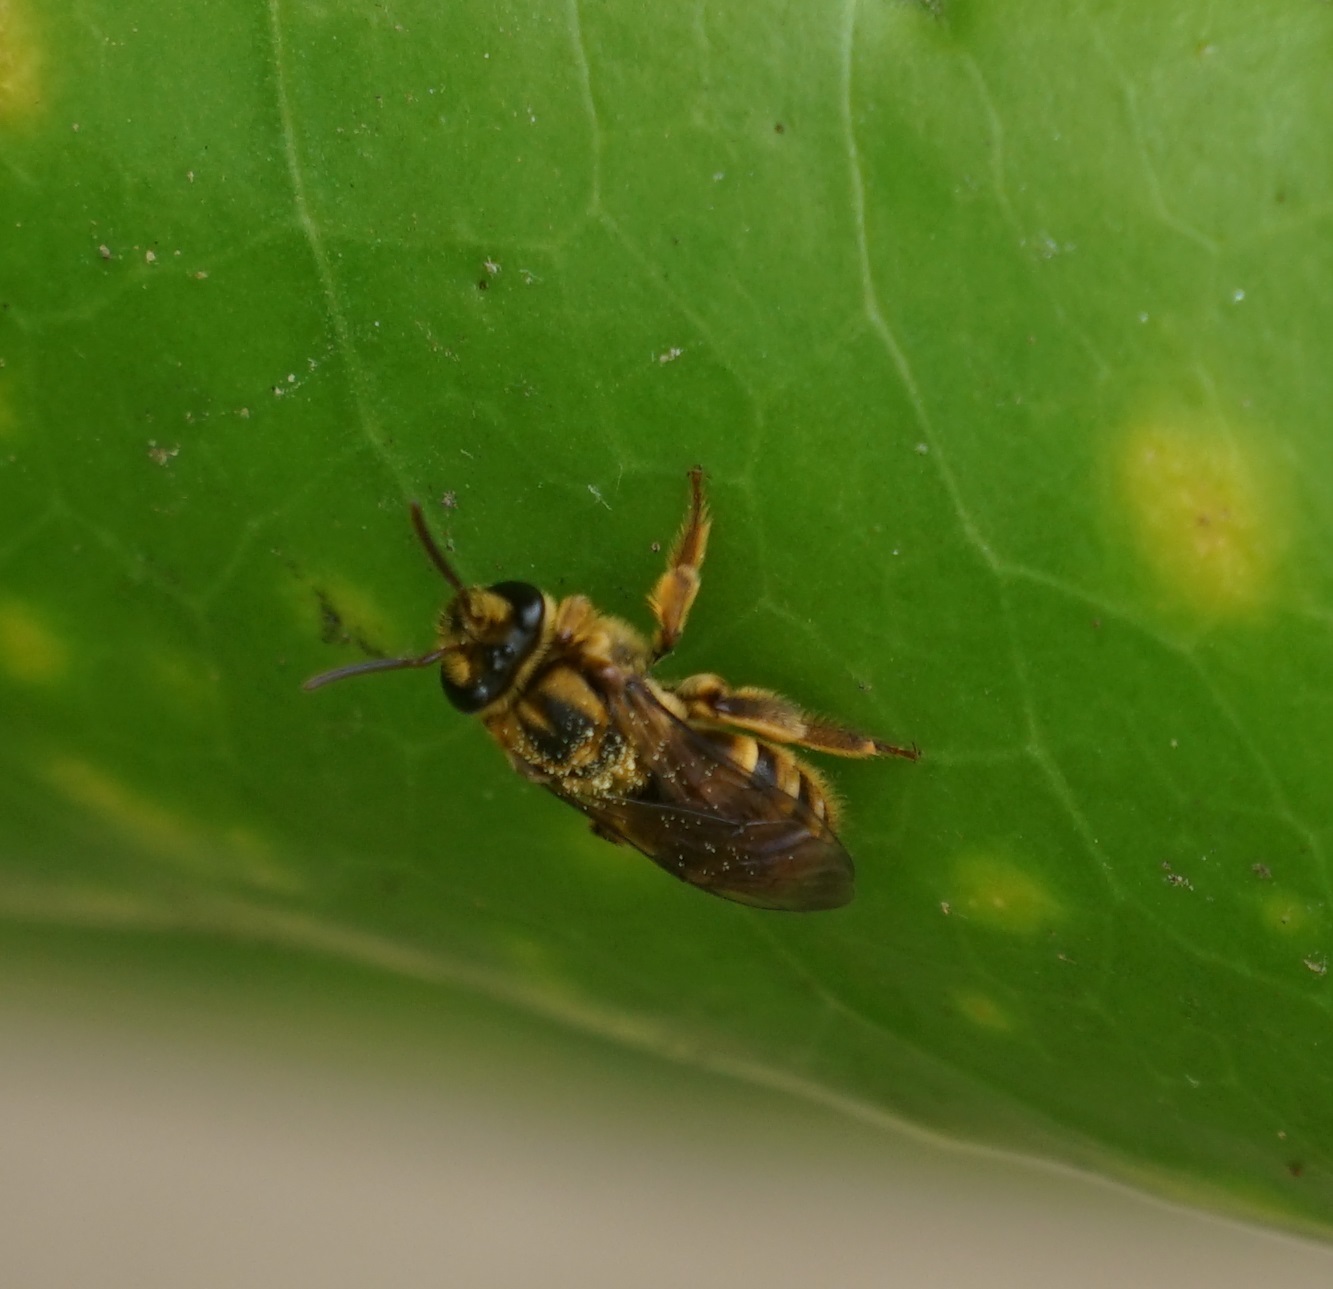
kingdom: Animalia
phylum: Arthropoda
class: Insecta
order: Hymenoptera
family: Halictidae
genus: Mellitidia
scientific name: Mellitidia tomentifera
